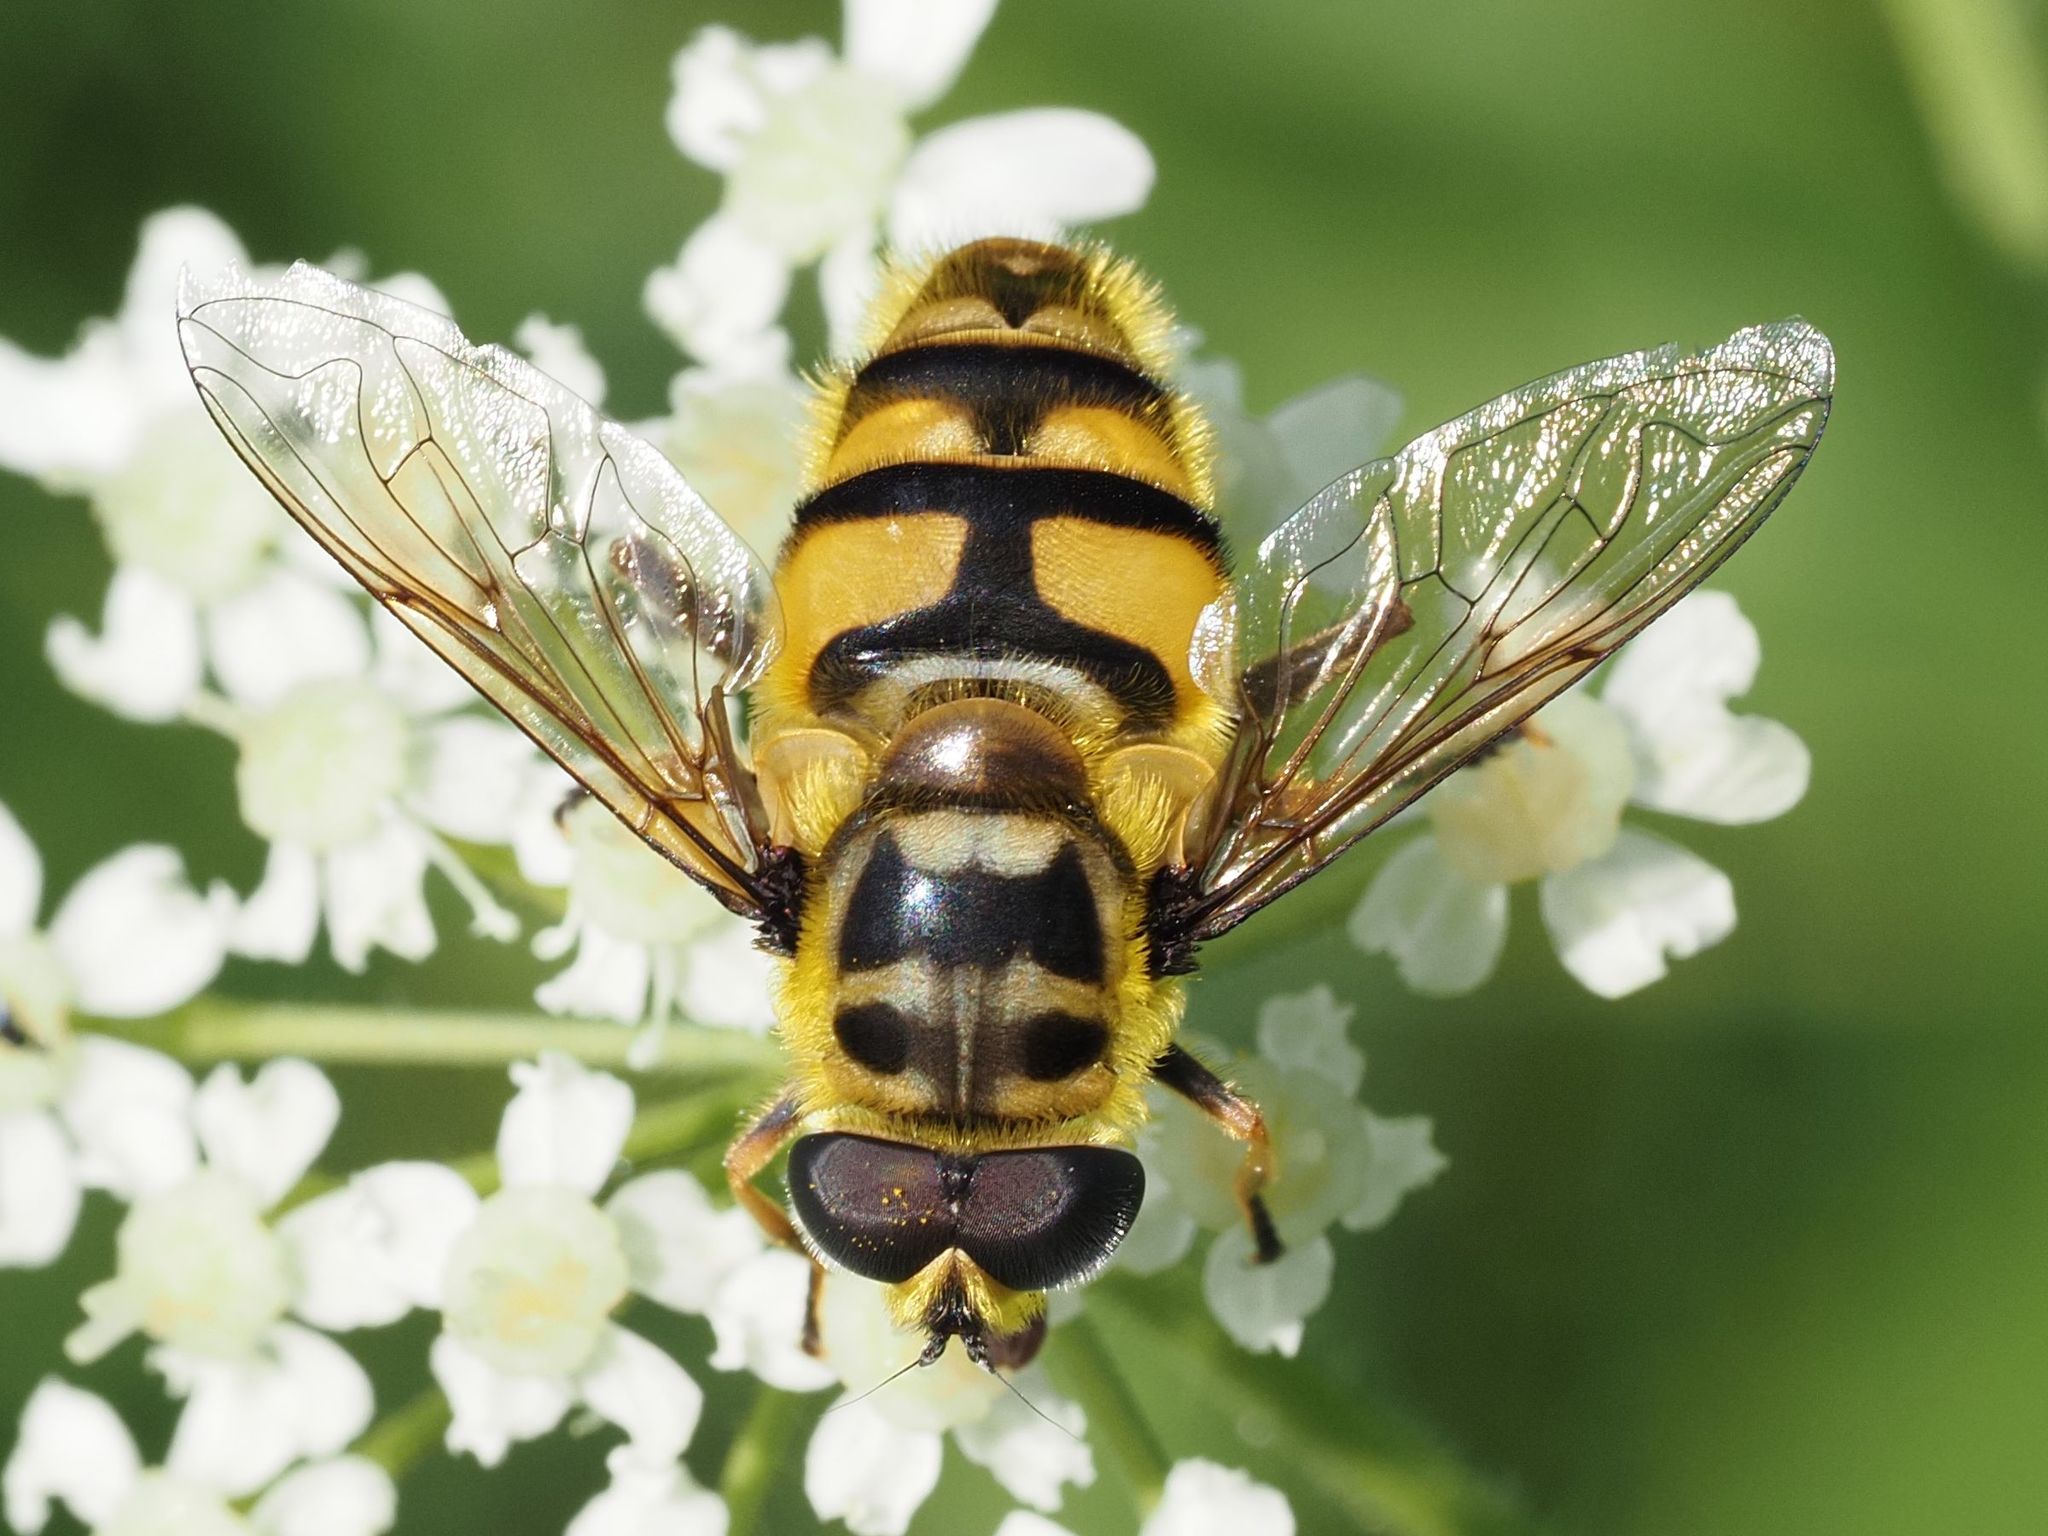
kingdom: Animalia
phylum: Arthropoda
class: Insecta
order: Diptera
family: Syrphidae
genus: Myathropa
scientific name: Myathropa florea
